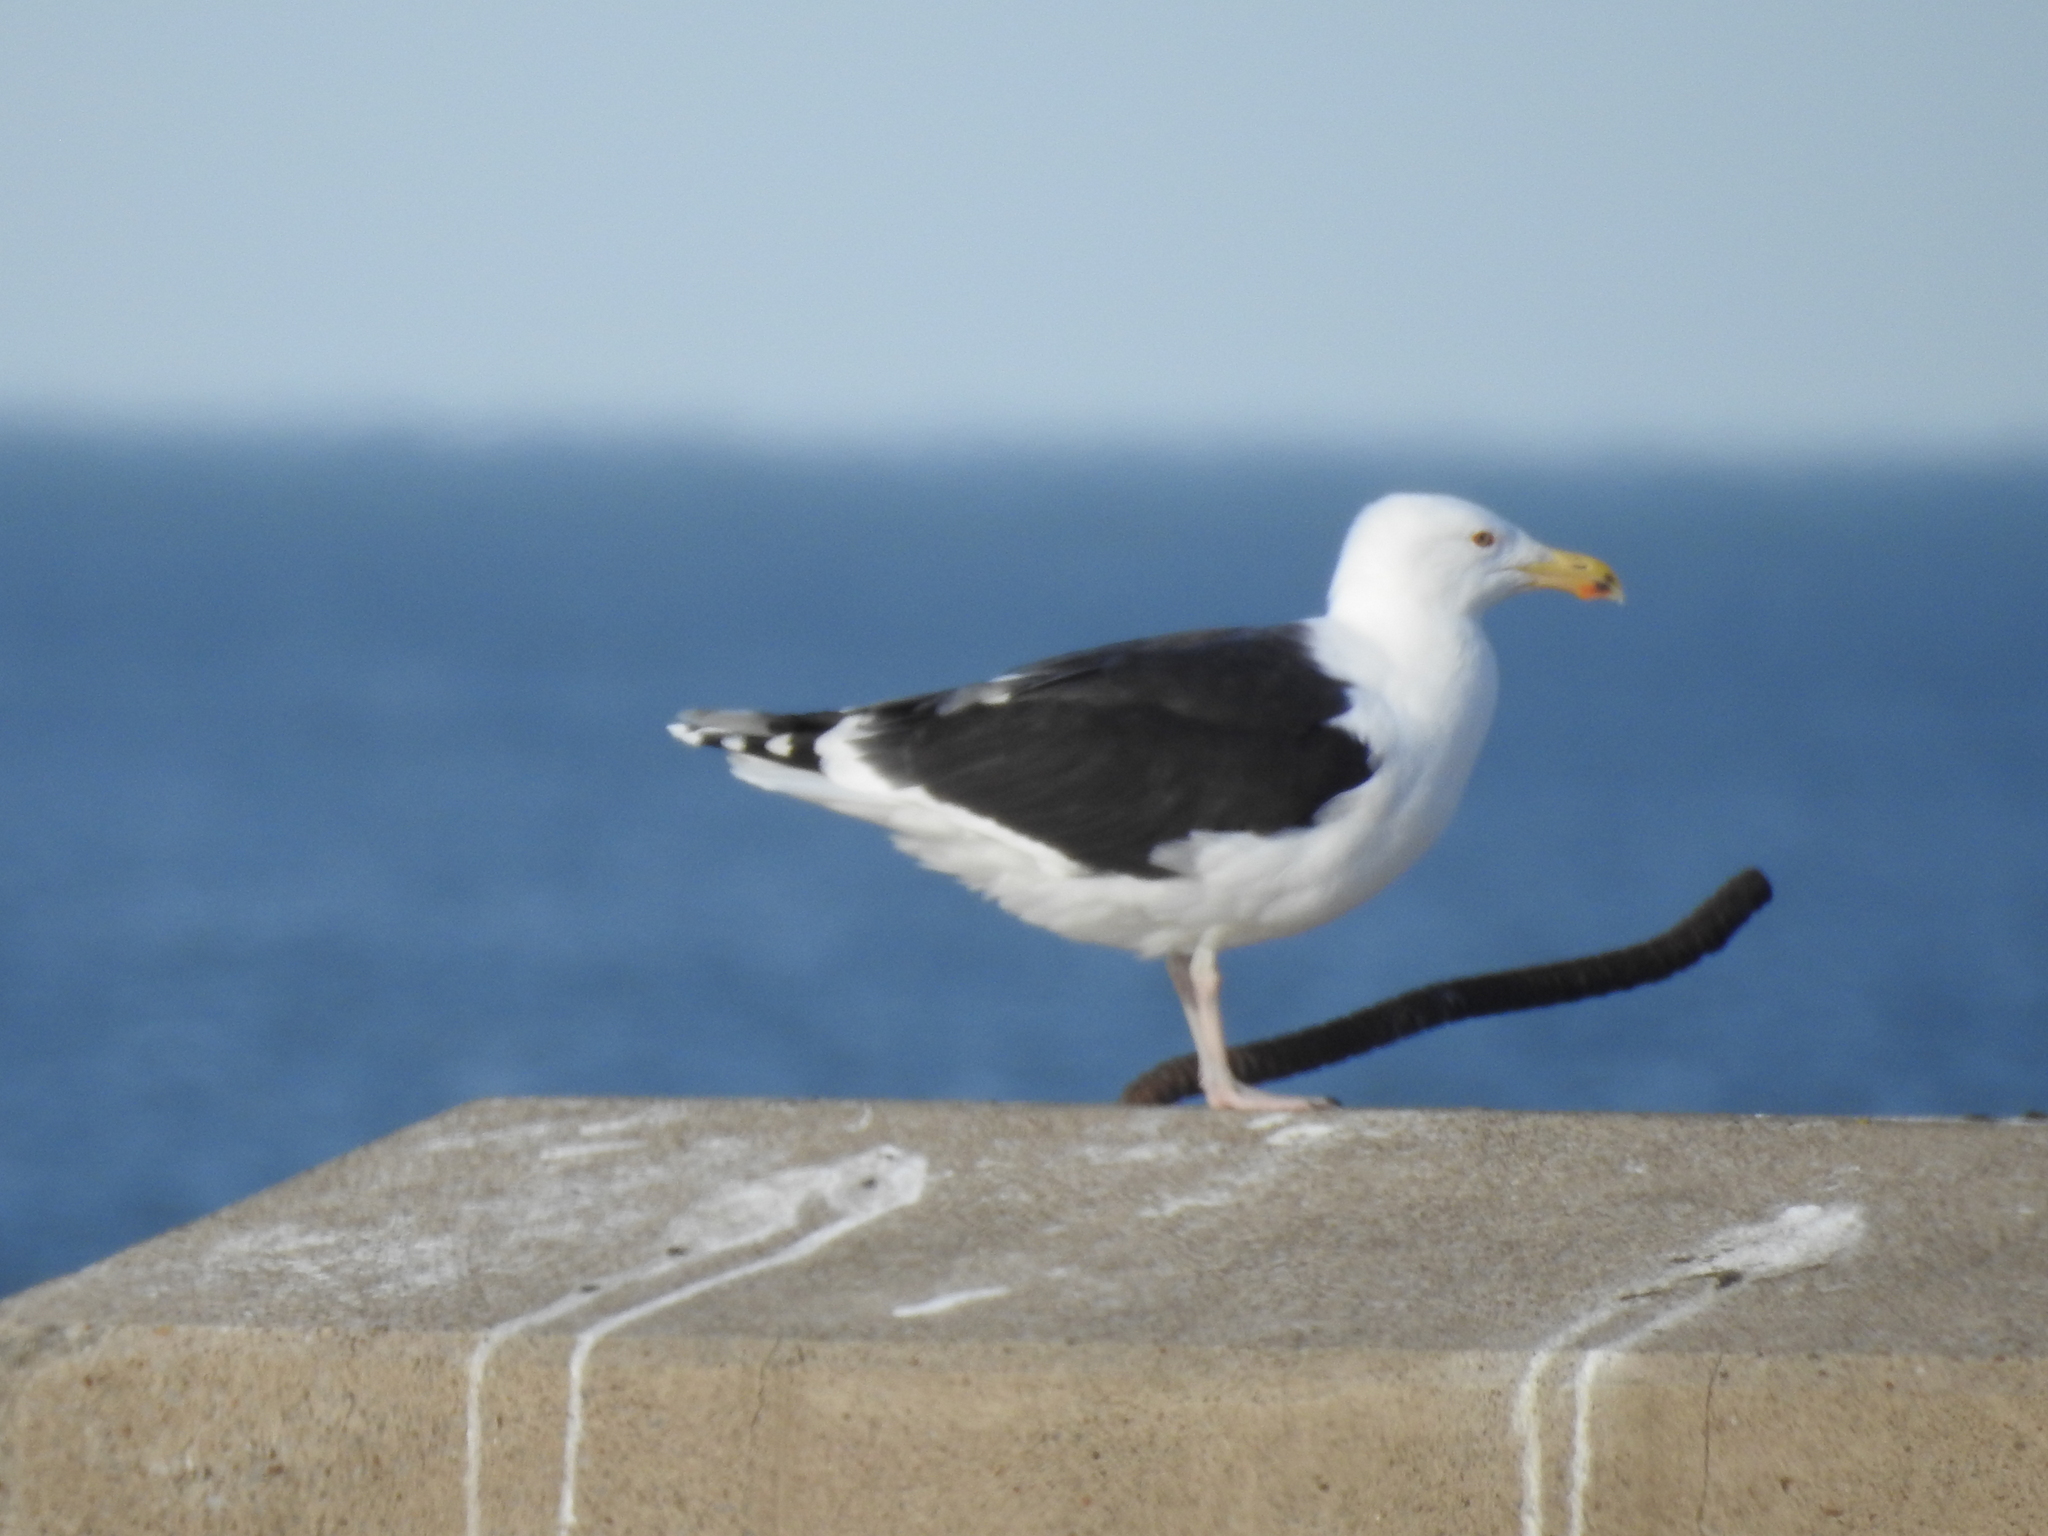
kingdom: Animalia
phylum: Chordata
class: Aves
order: Charadriiformes
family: Laridae
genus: Larus
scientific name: Larus marinus
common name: Great black-backed gull
